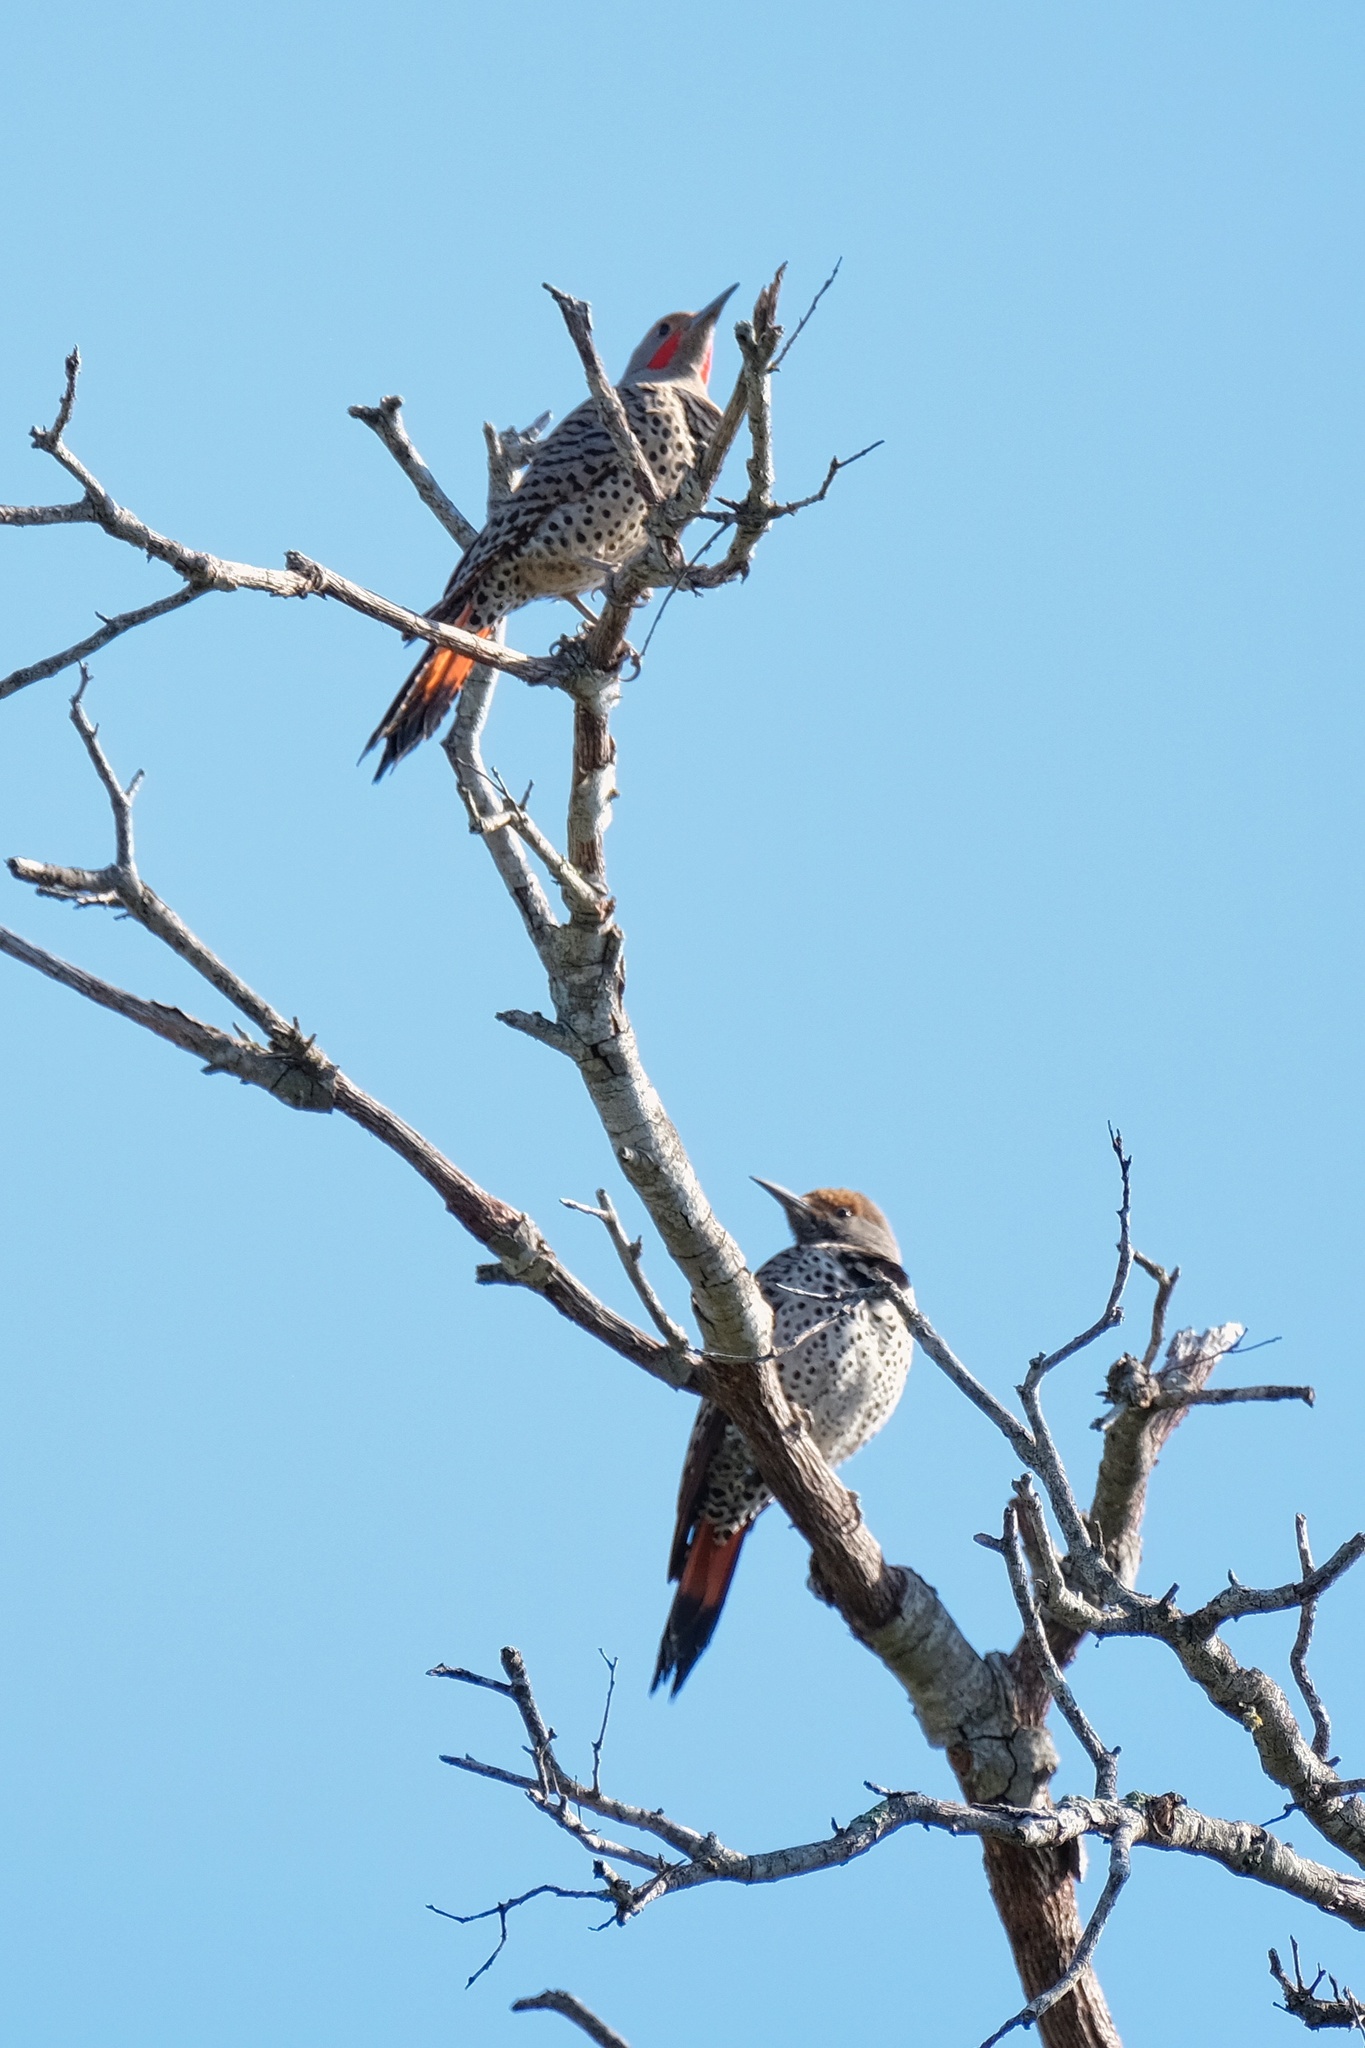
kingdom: Animalia
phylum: Chordata
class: Aves
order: Piciformes
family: Picidae
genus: Colaptes
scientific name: Colaptes auratus
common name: Northern flicker
